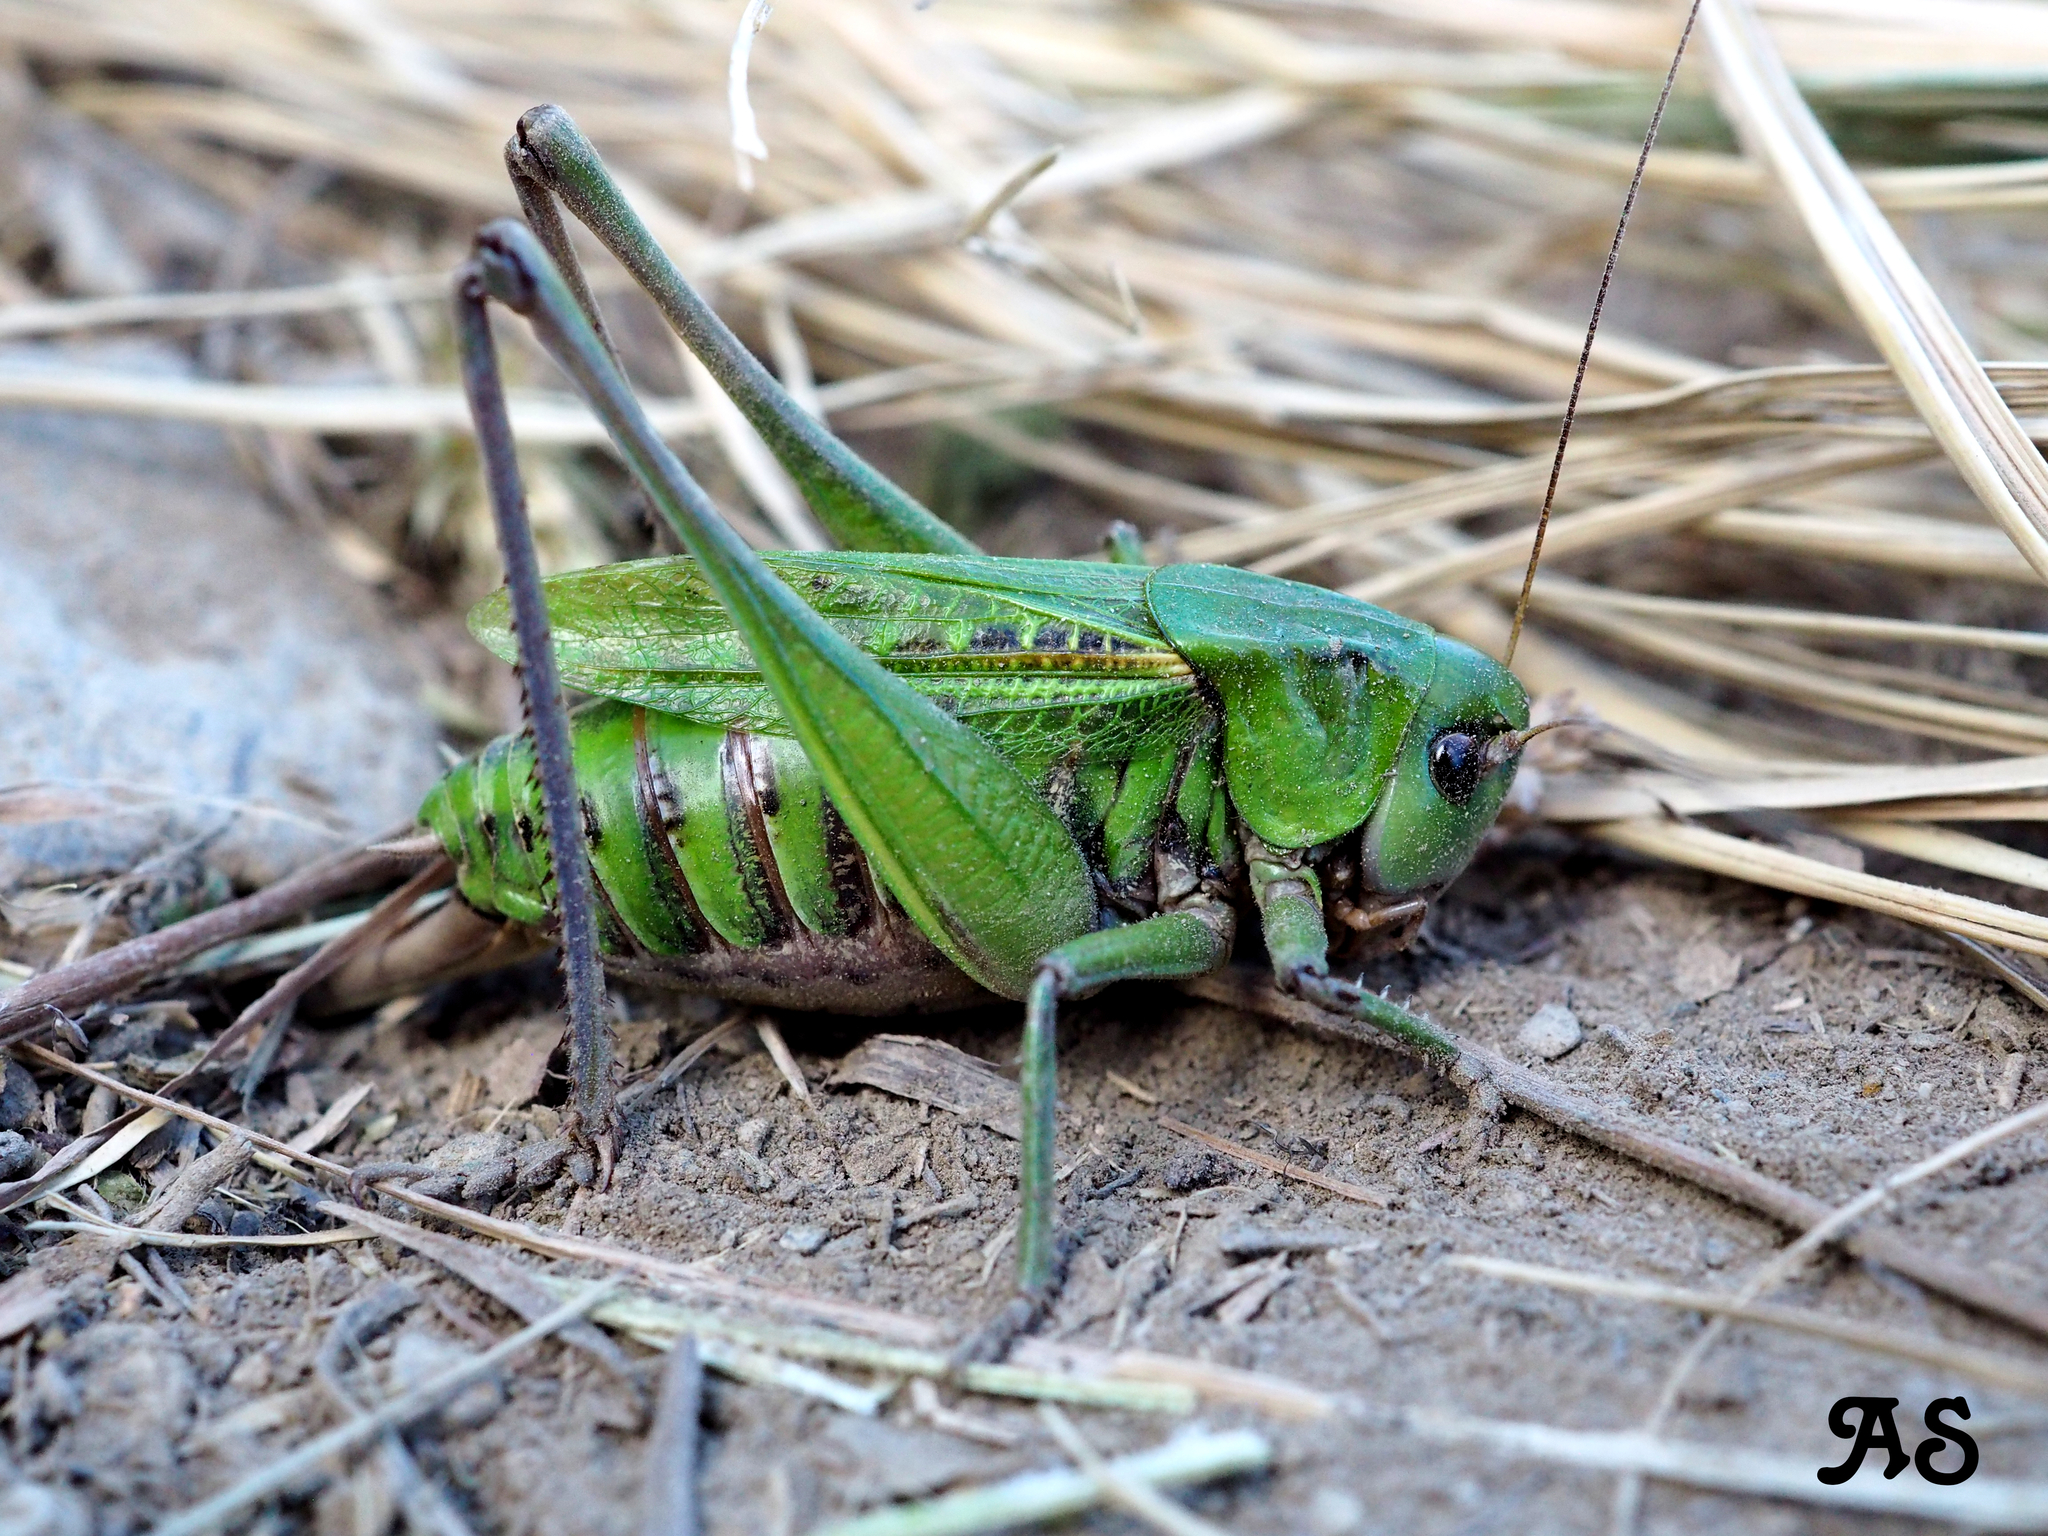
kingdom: Animalia
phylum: Arthropoda
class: Insecta
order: Orthoptera
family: Tettigoniidae
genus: Decticus
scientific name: Decticus verrucivorus
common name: Wart-biter
